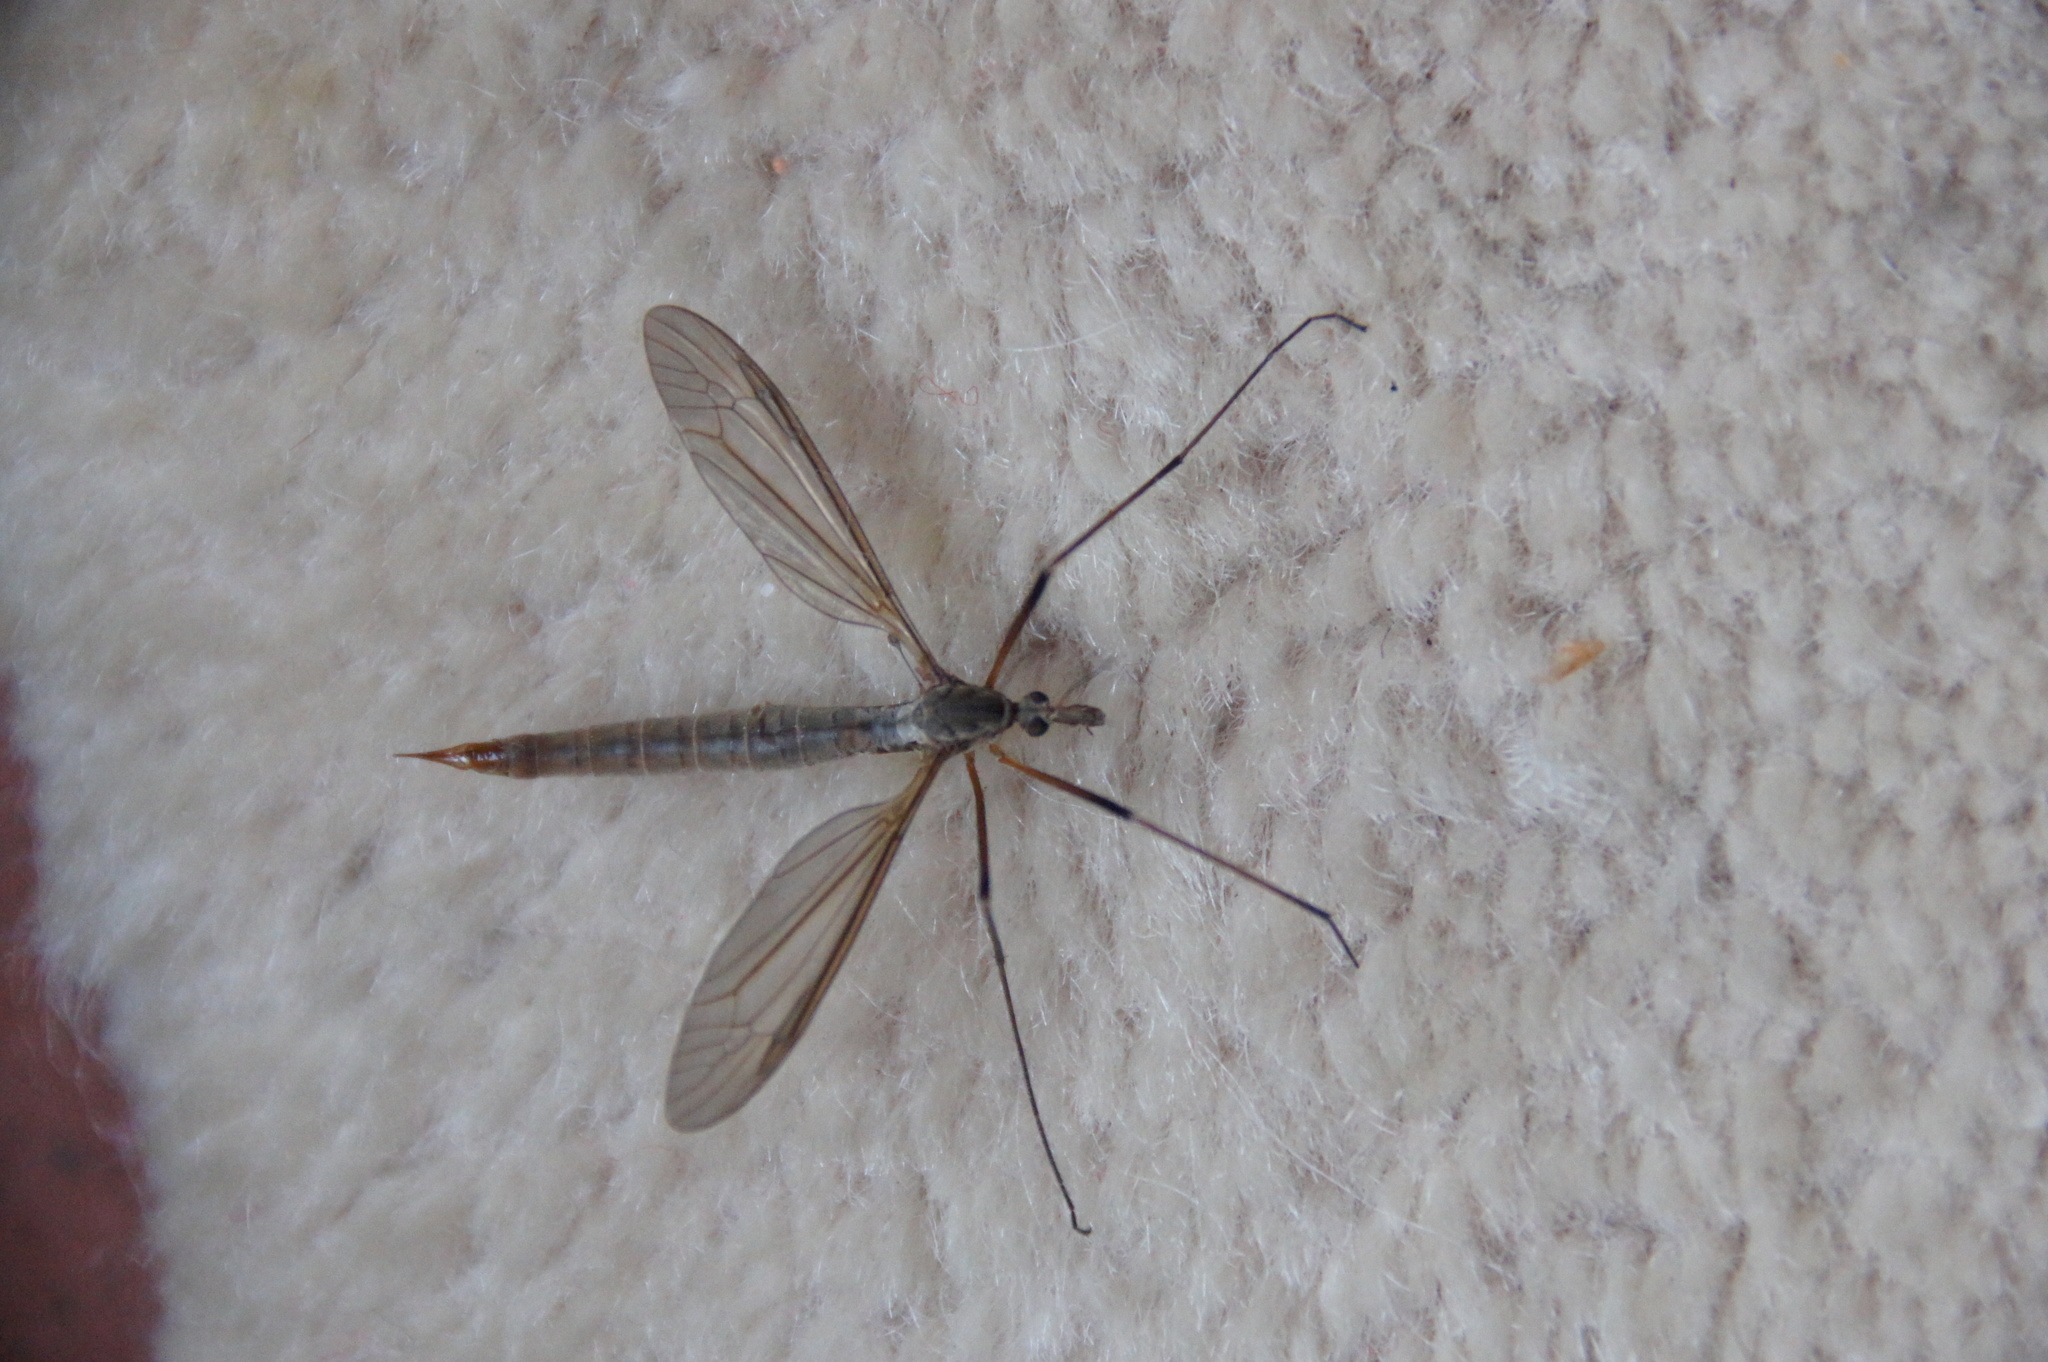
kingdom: Animalia
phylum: Arthropoda
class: Insecta
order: Diptera
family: Tipulidae
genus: Tipula
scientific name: Tipula paludosa
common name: European cranefly
